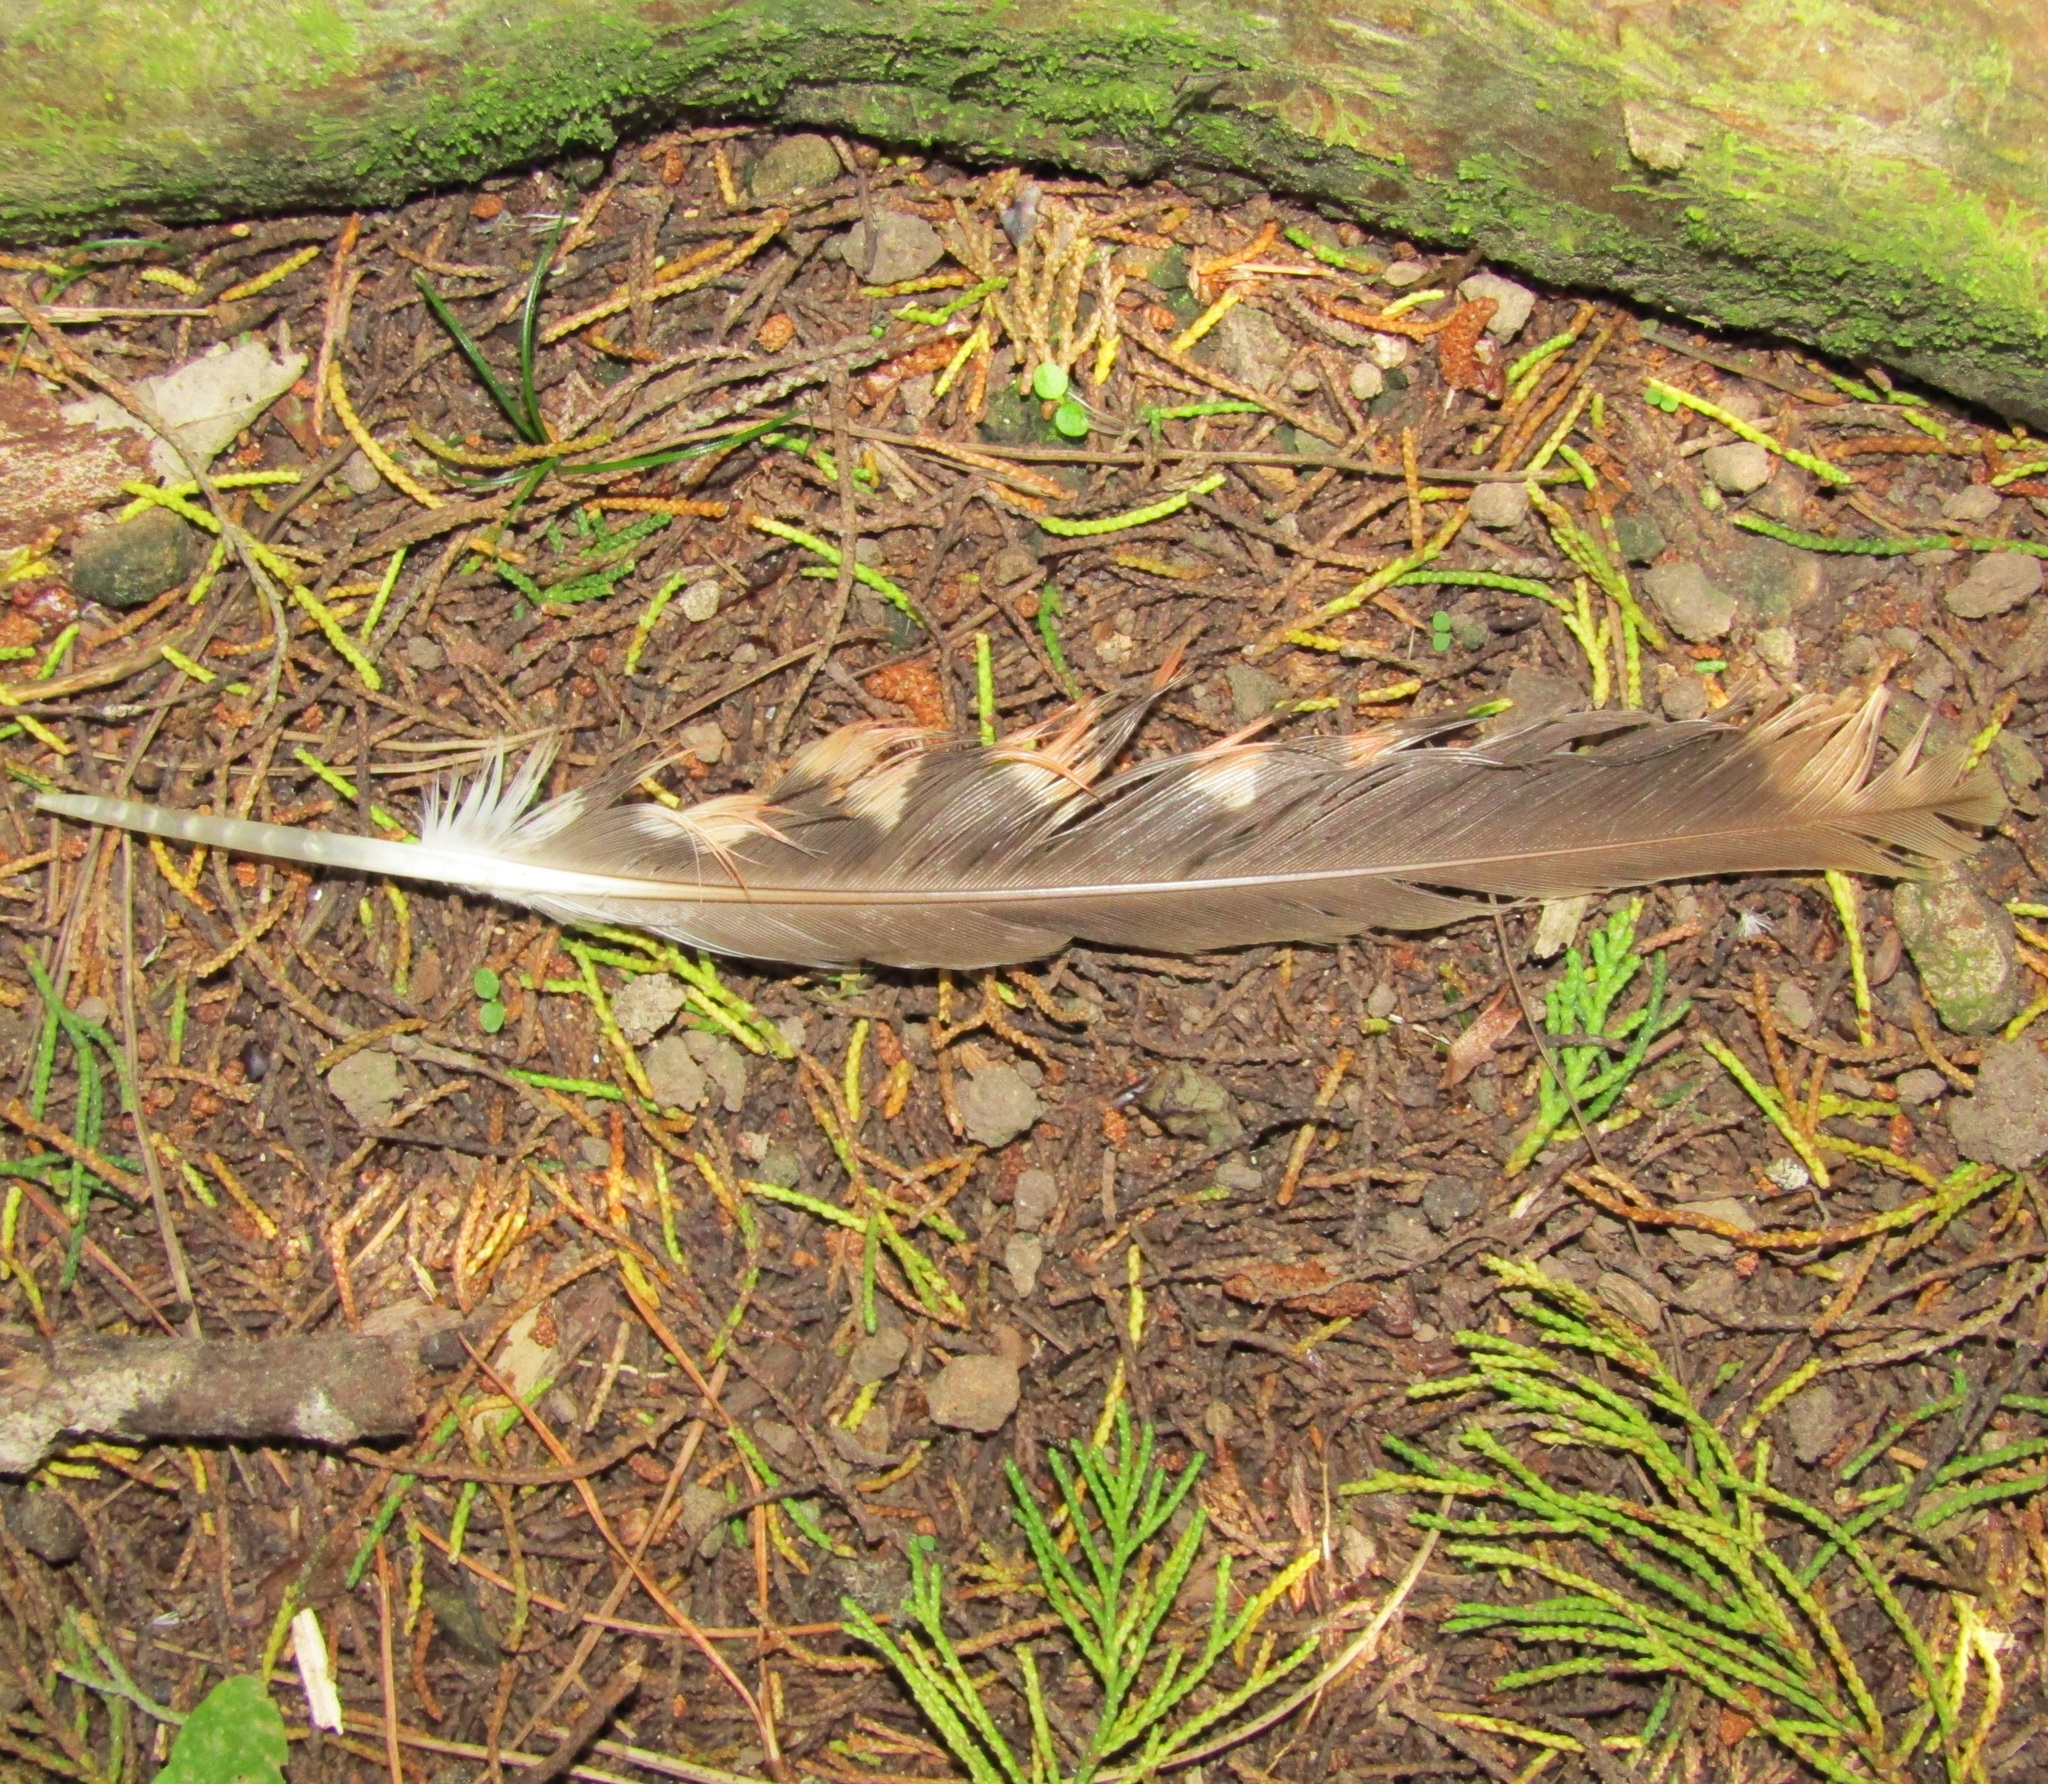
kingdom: Animalia
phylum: Chordata
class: Aves
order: Psittaciformes
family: Psittacidae
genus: Nestor
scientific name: Nestor meridionalis
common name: New zealand kaka
